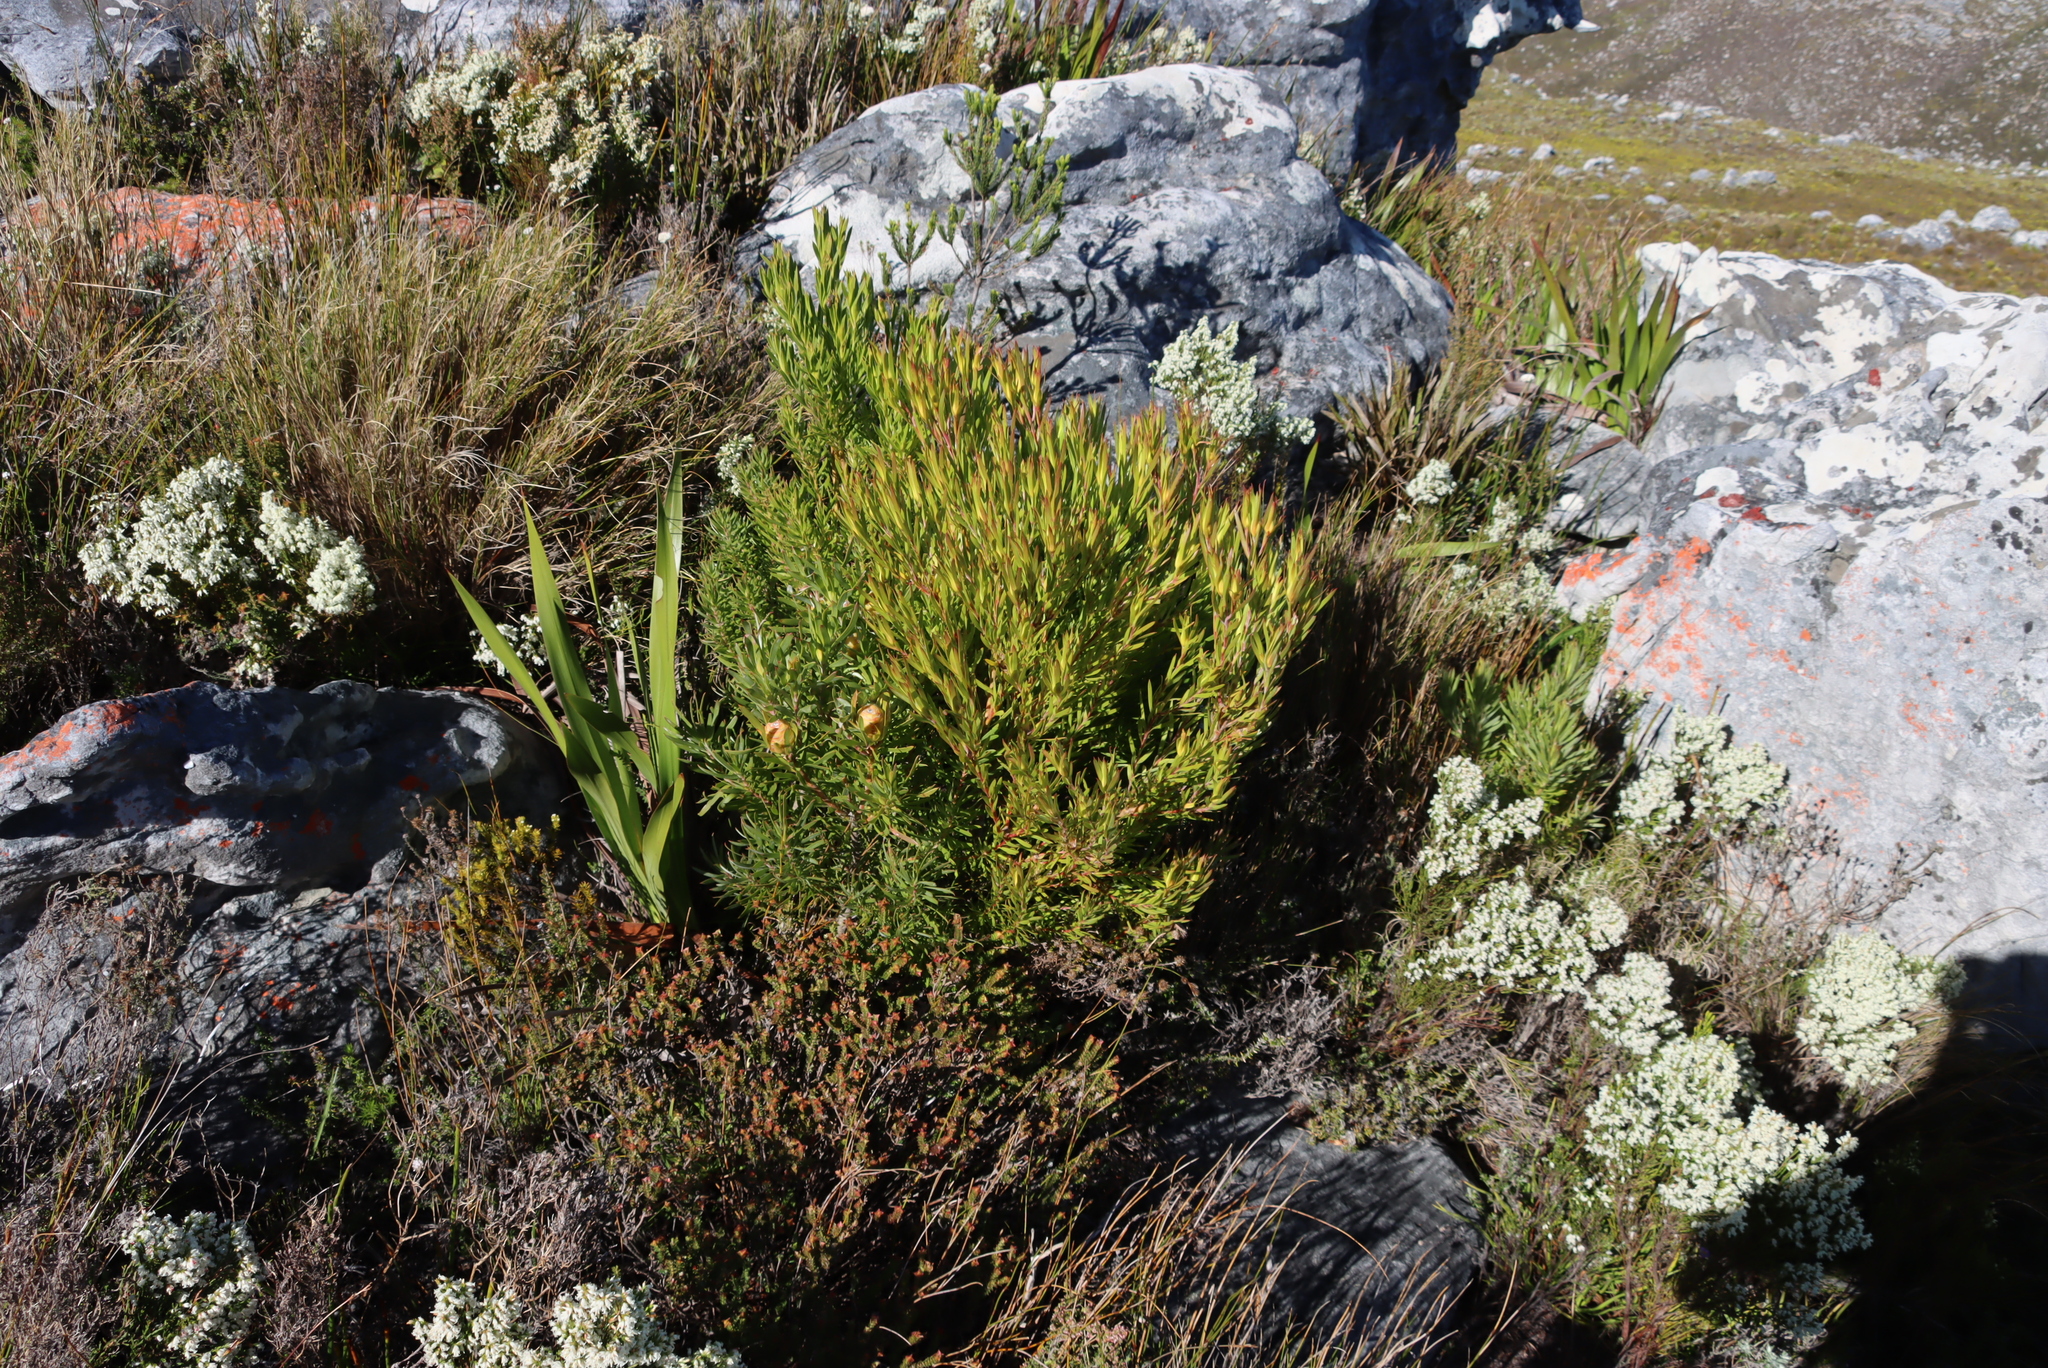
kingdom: Plantae
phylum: Tracheophyta
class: Magnoliopsida
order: Proteales
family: Proteaceae
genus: Leucadendron
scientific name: Leucadendron xanthoconus
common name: Sickle-leaf conebush
